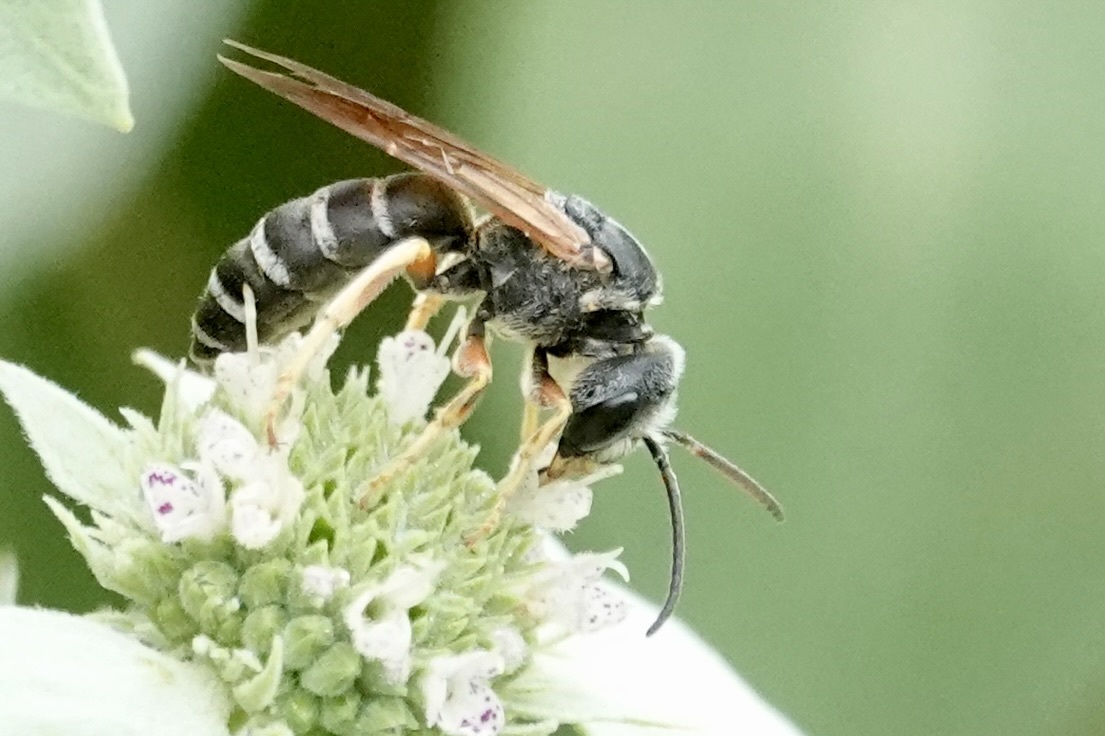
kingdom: Animalia
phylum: Arthropoda
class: Insecta
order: Hymenoptera
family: Halictidae
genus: Halictus
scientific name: Halictus parallelus
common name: Parallel-striped sweat bee
